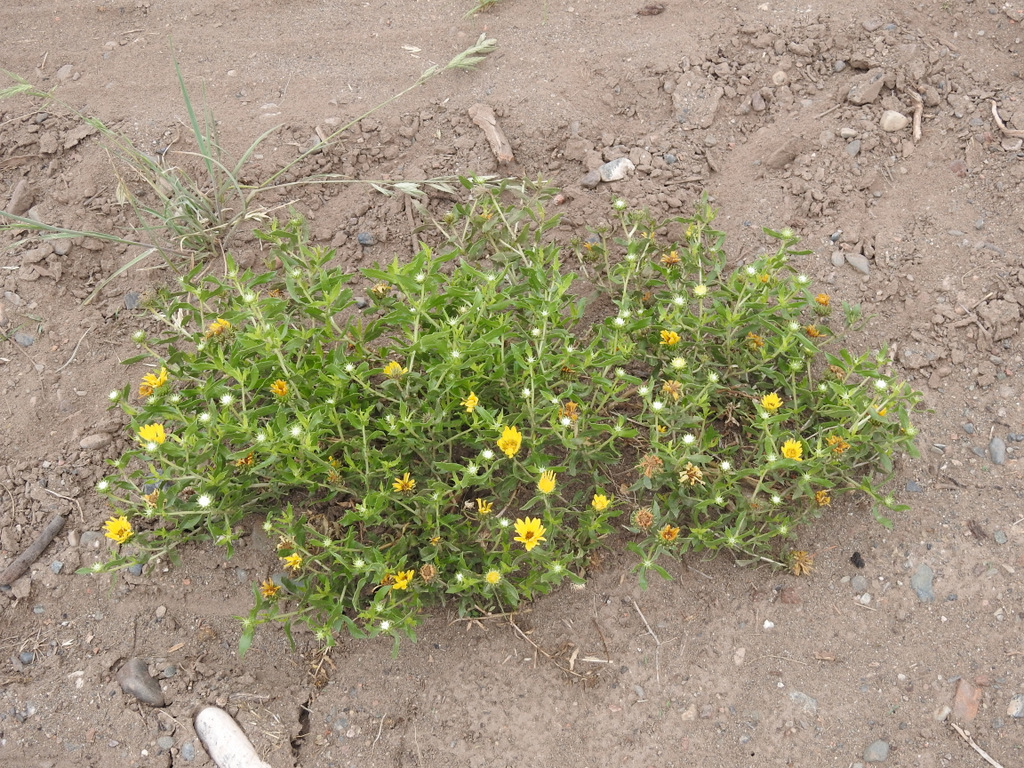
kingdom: Plantae
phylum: Tracheophyta
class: Magnoliopsida
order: Asterales
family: Asteraceae
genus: Grindelia
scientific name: Grindelia pulchella
